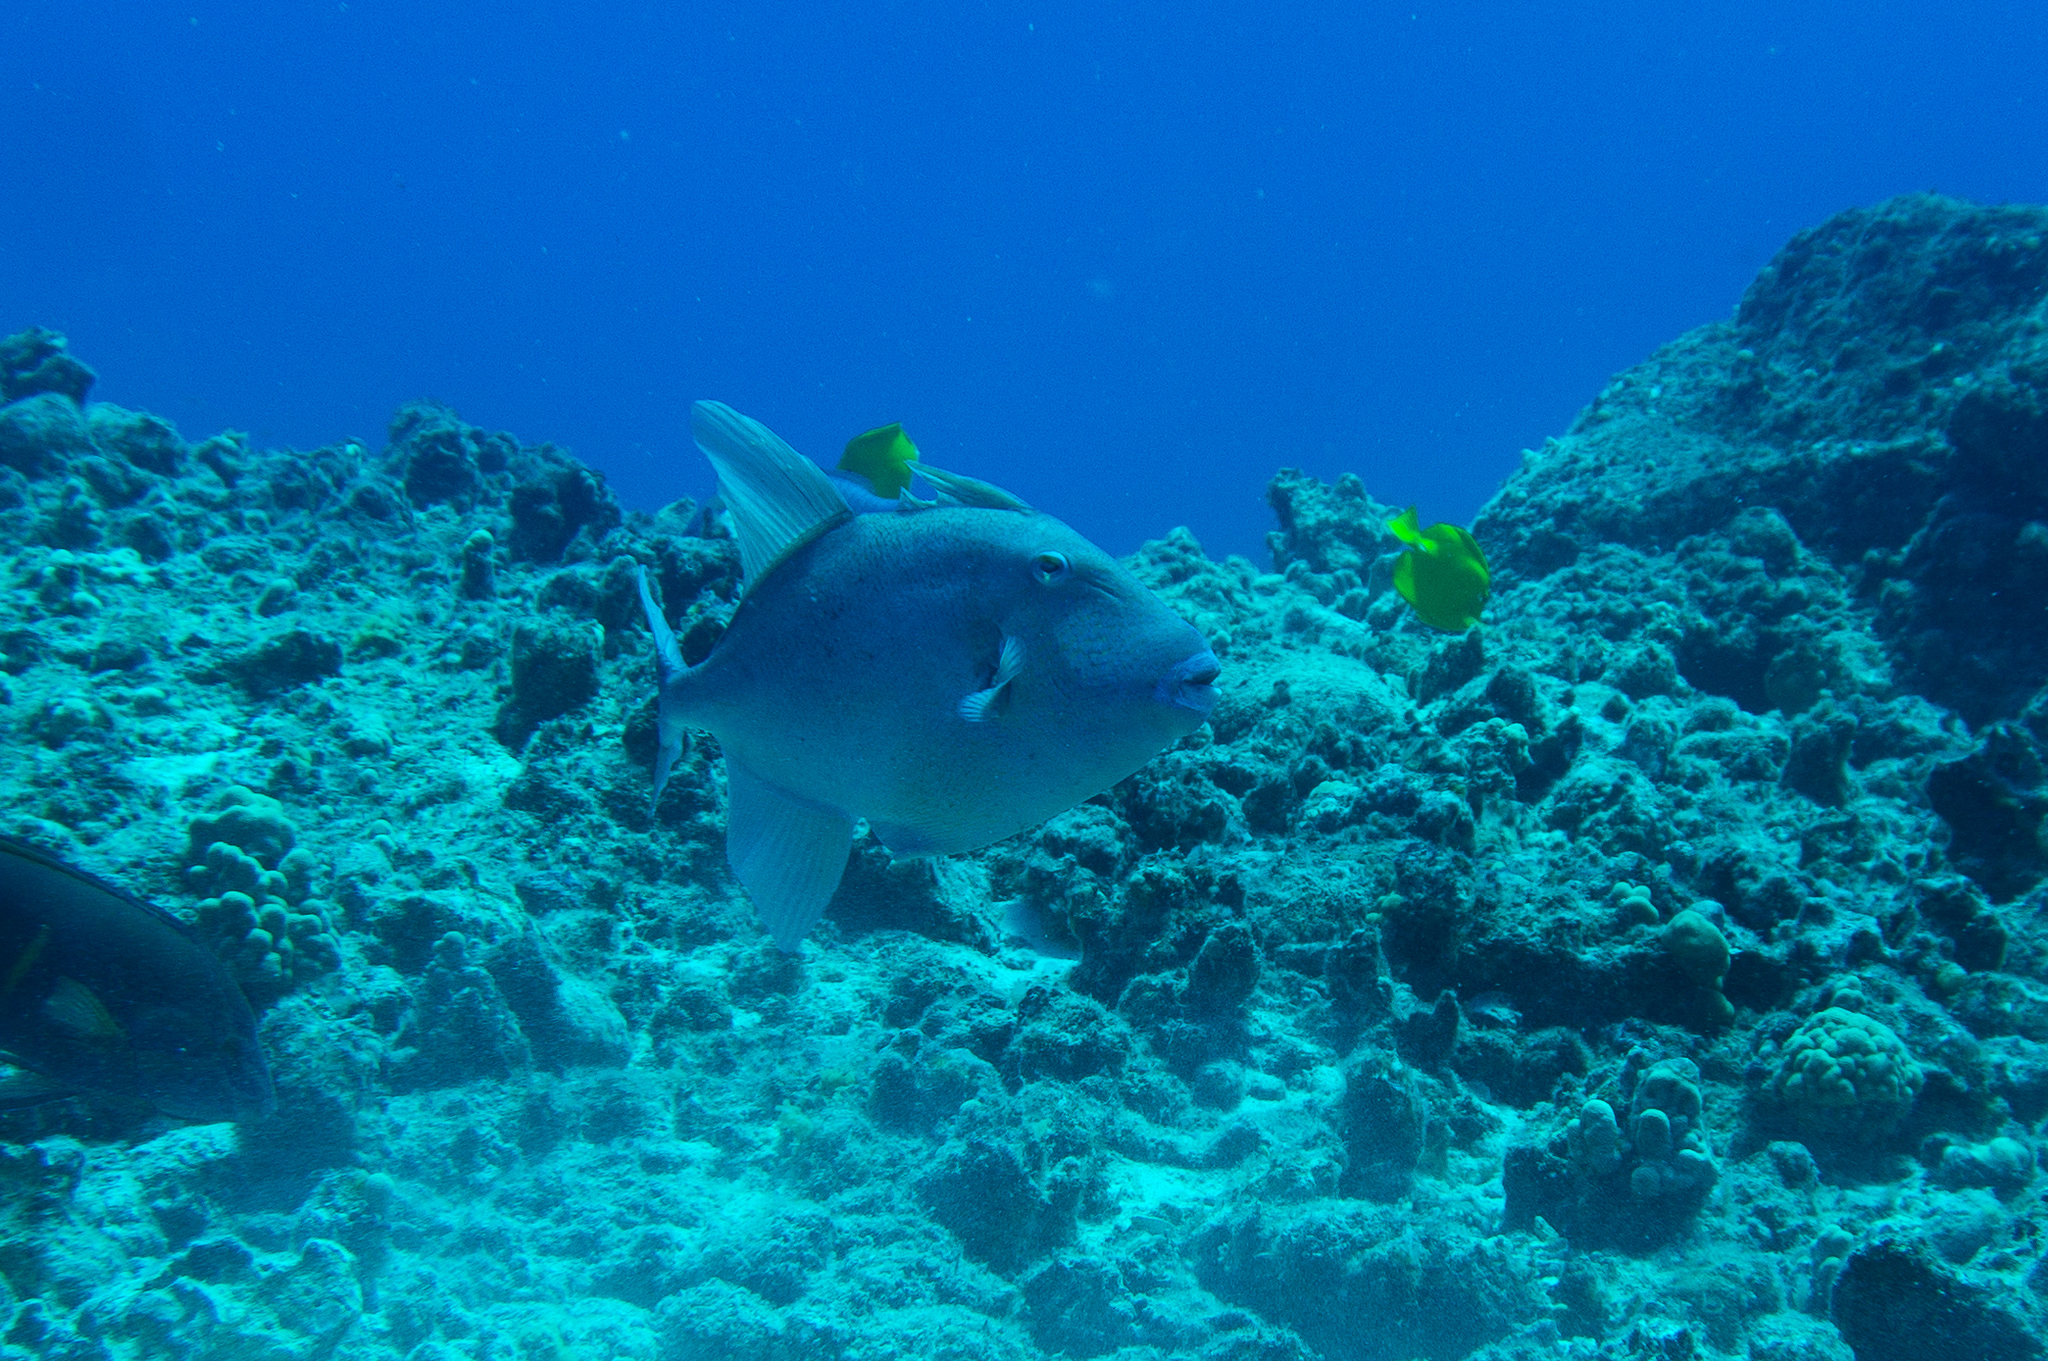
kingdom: Animalia
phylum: Chordata
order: Tetraodontiformes
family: Balistidae
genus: Balistes
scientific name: Balistes polylepis
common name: Finescale triggerfish
